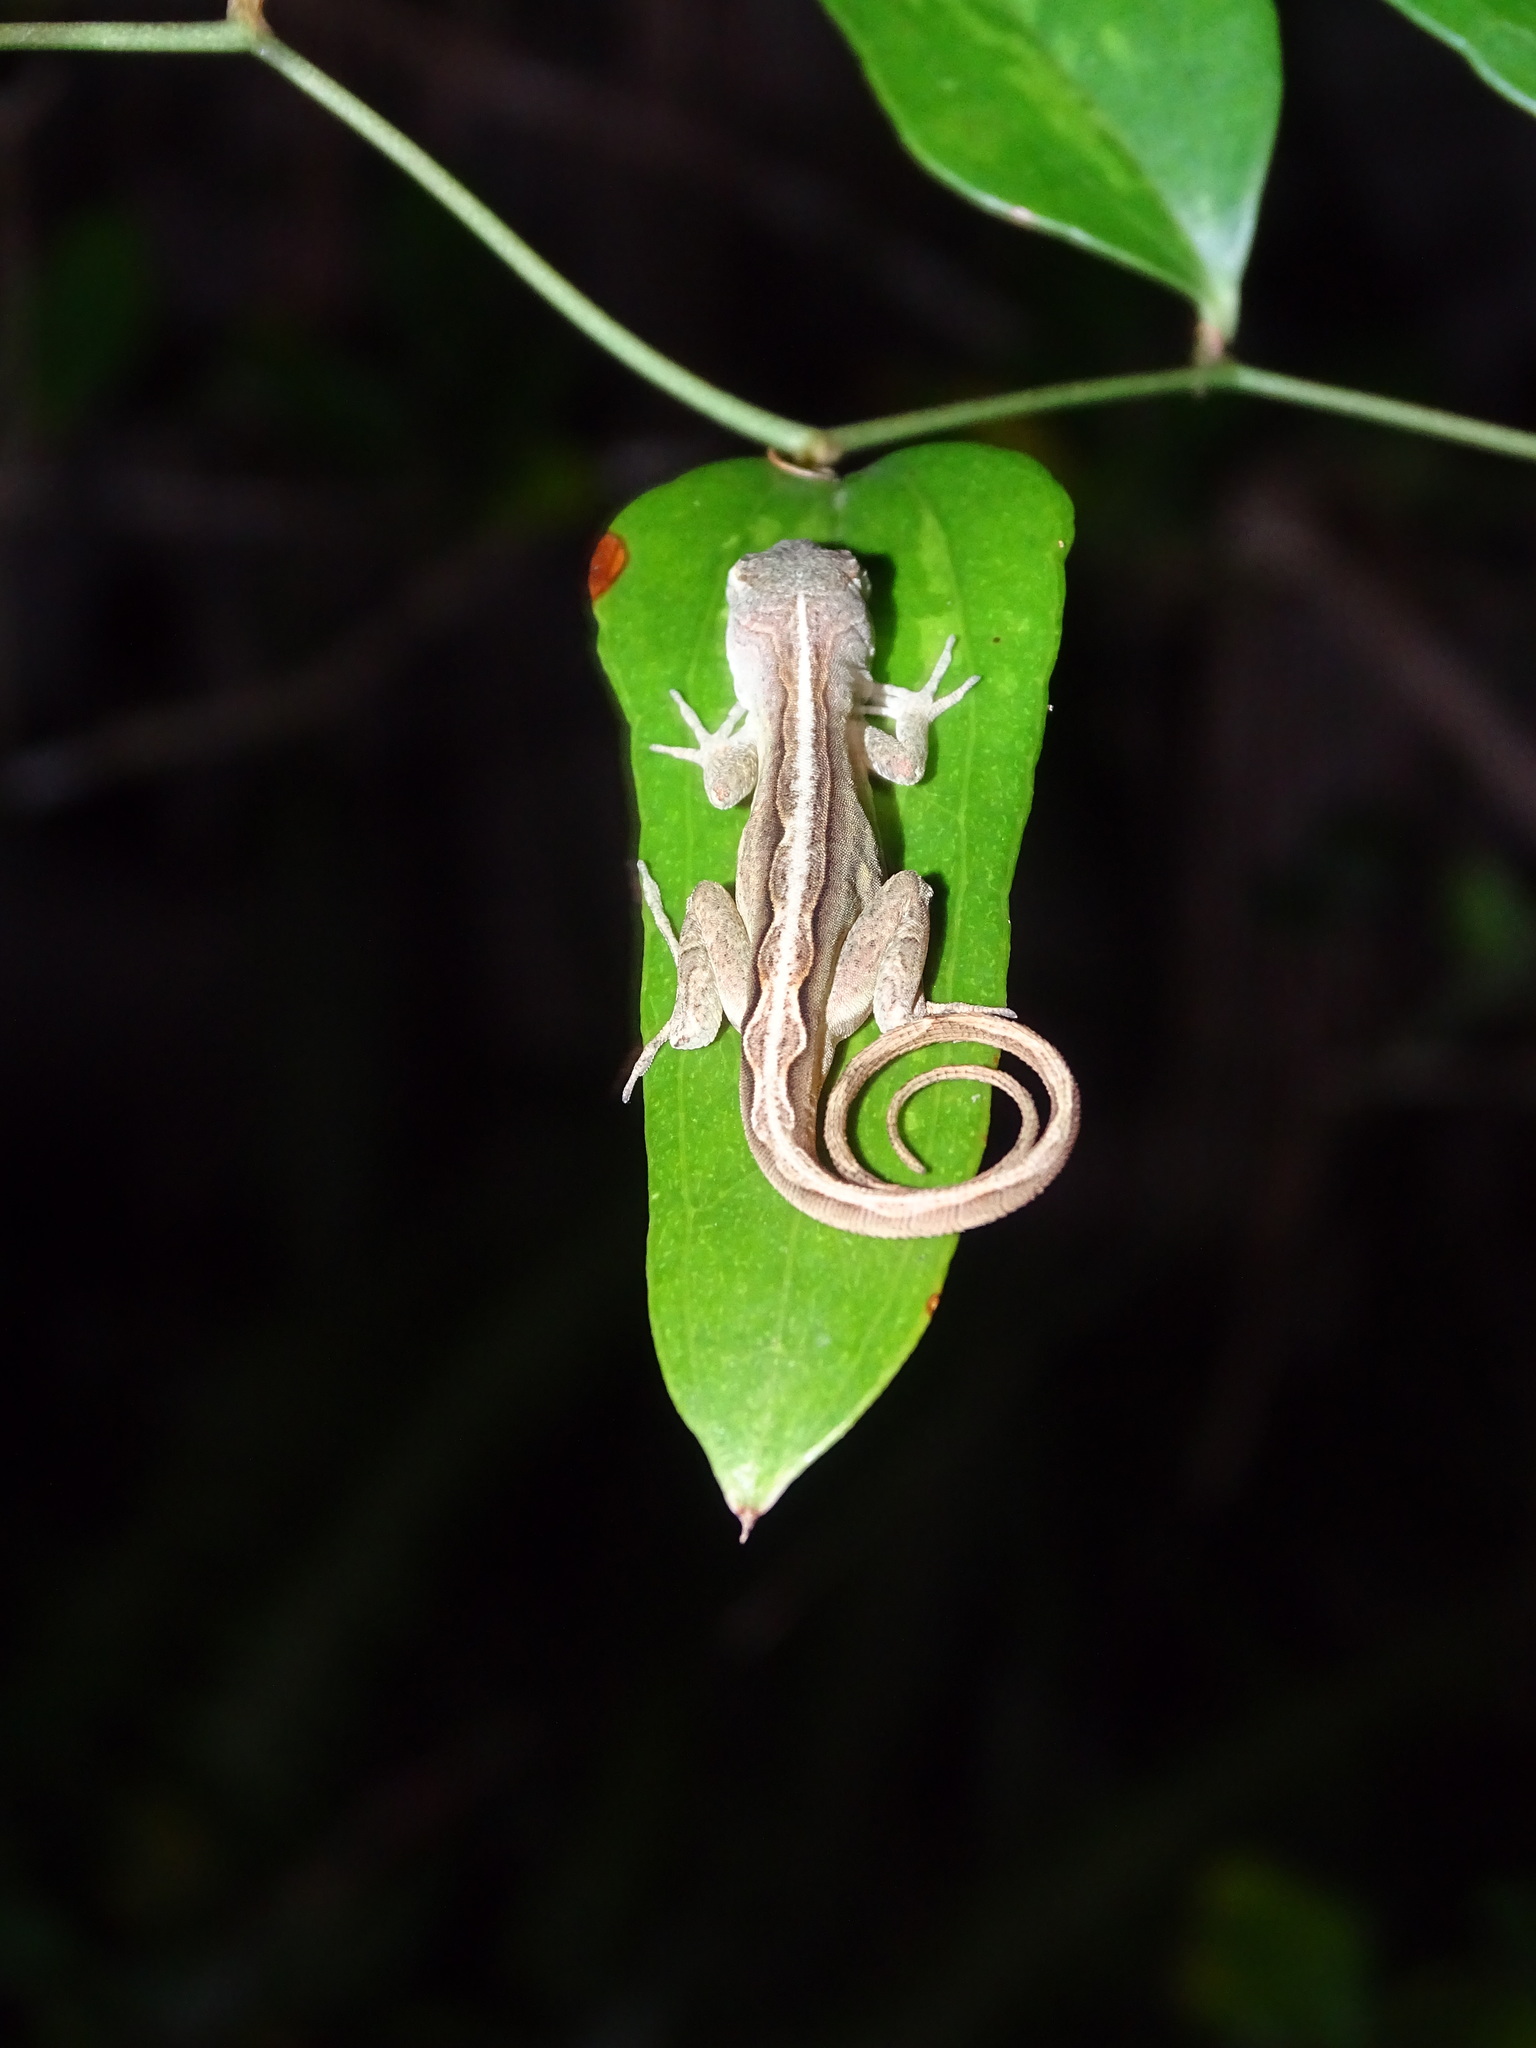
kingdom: Animalia
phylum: Chordata
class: Squamata
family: Dactyloidae
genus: Anolis
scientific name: Anolis sagrei
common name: Brown anole
